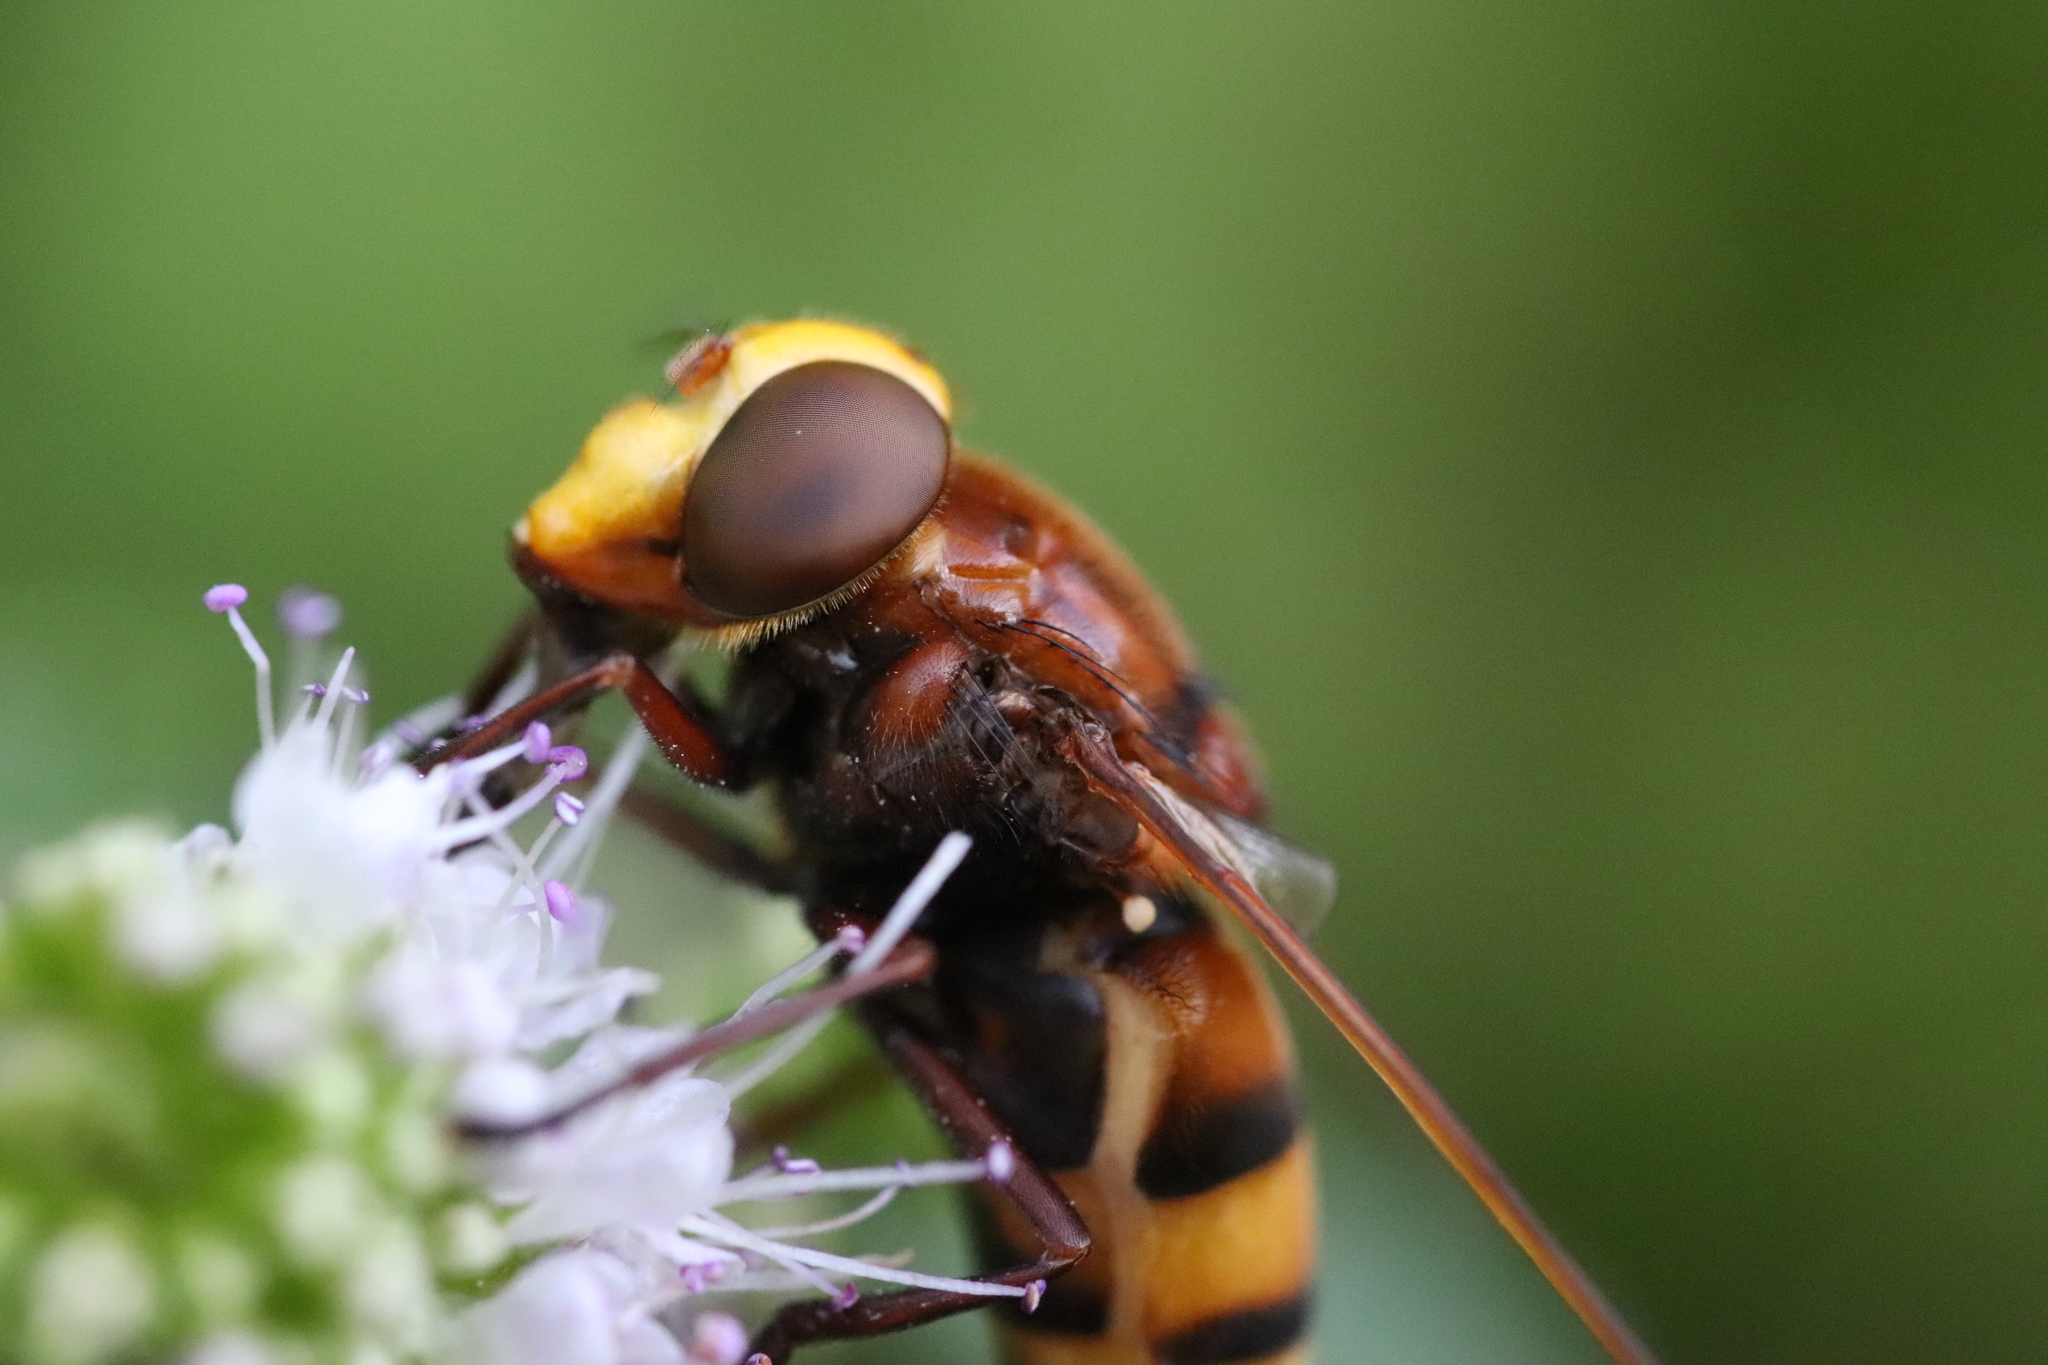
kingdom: Animalia
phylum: Arthropoda
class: Insecta
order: Diptera
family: Syrphidae
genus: Volucella
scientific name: Volucella zonaria
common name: Hornet hoverfly
